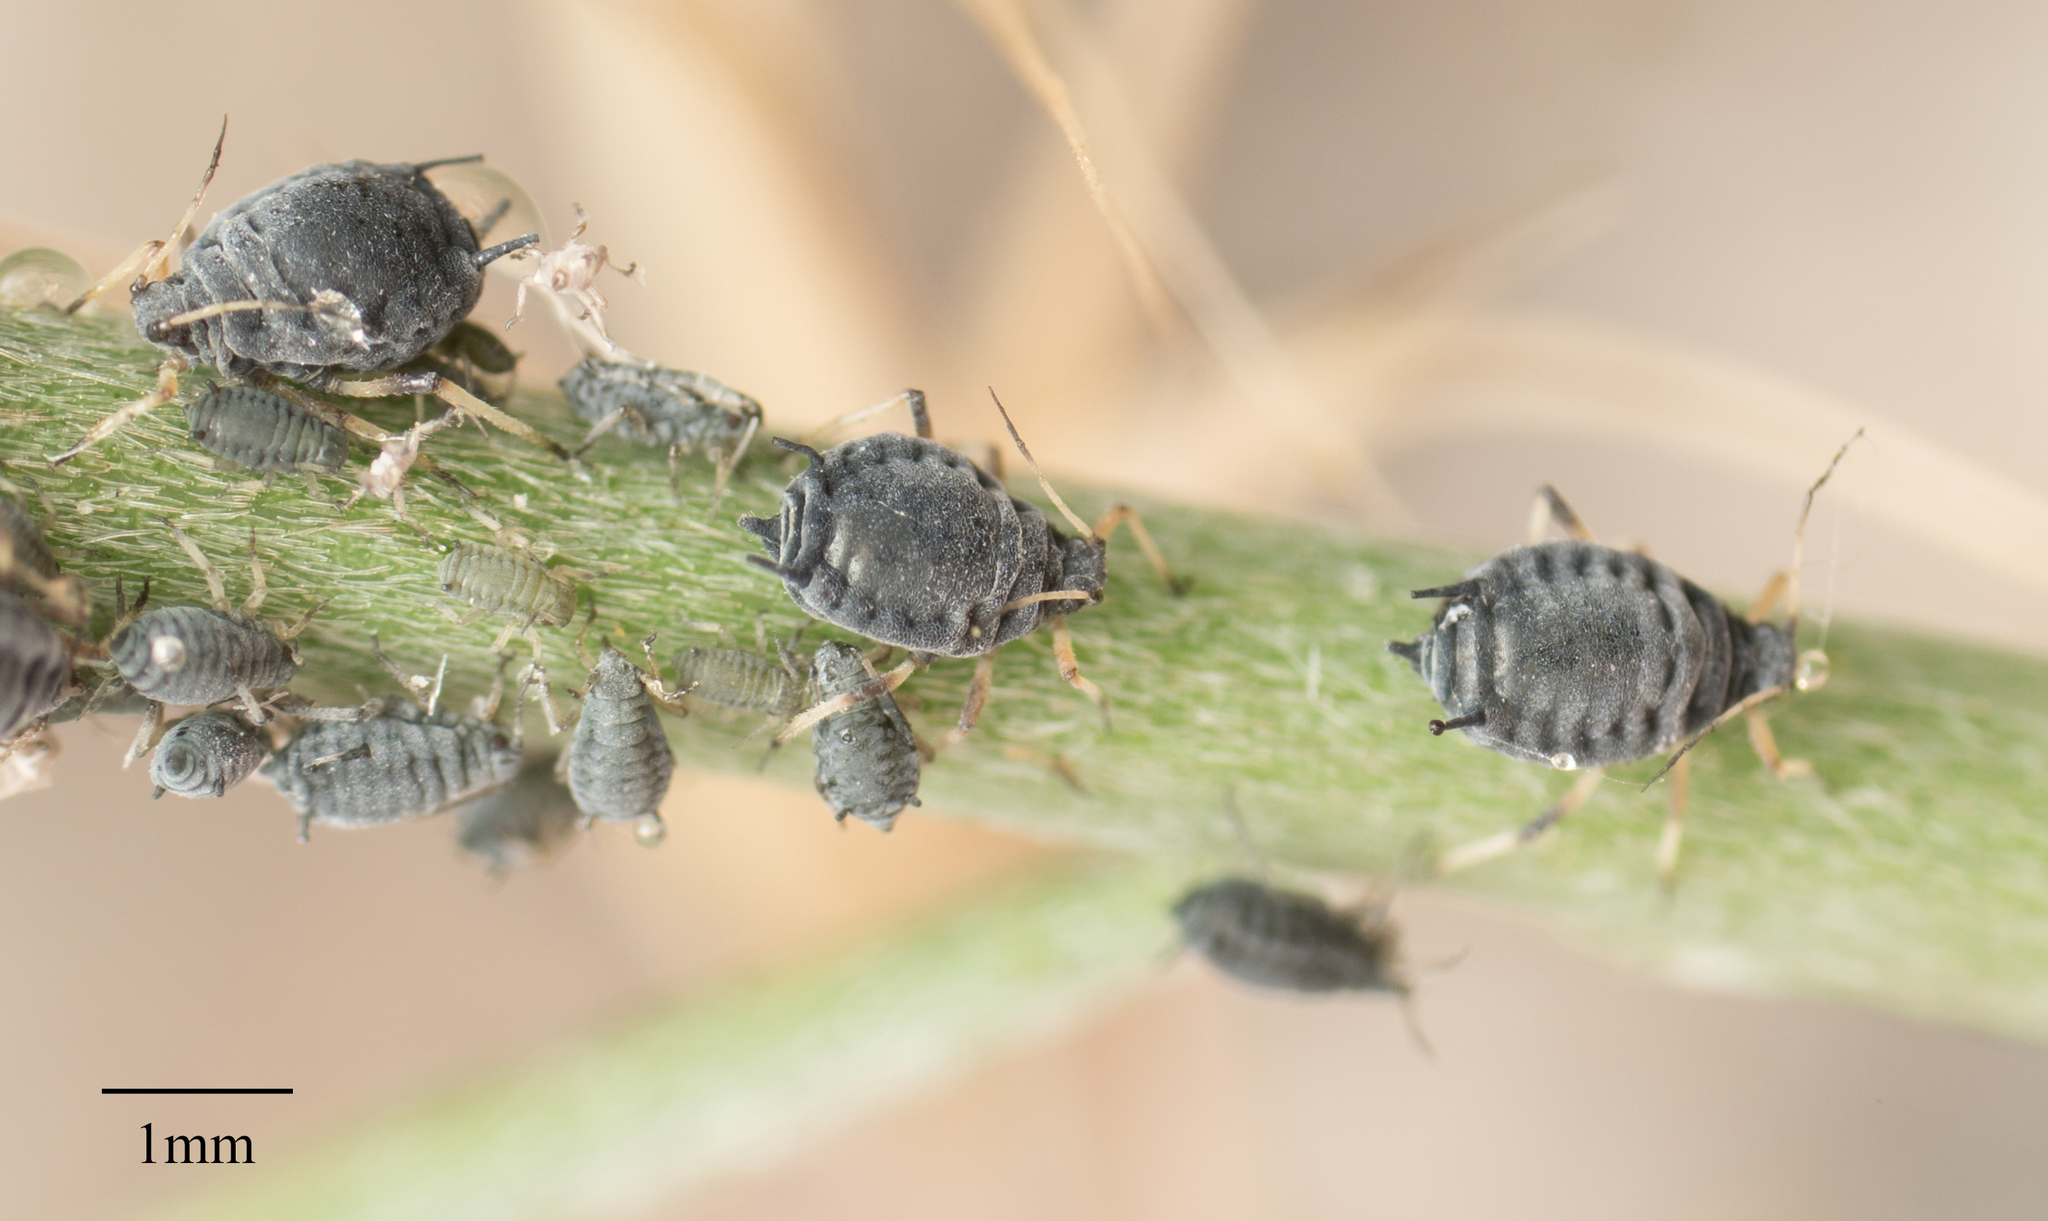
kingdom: Animalia
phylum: Arthropoda
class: Insecta
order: Hemiptera
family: Aphididae
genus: Aphis
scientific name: Aphis cytisorum
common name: Broom aphid
